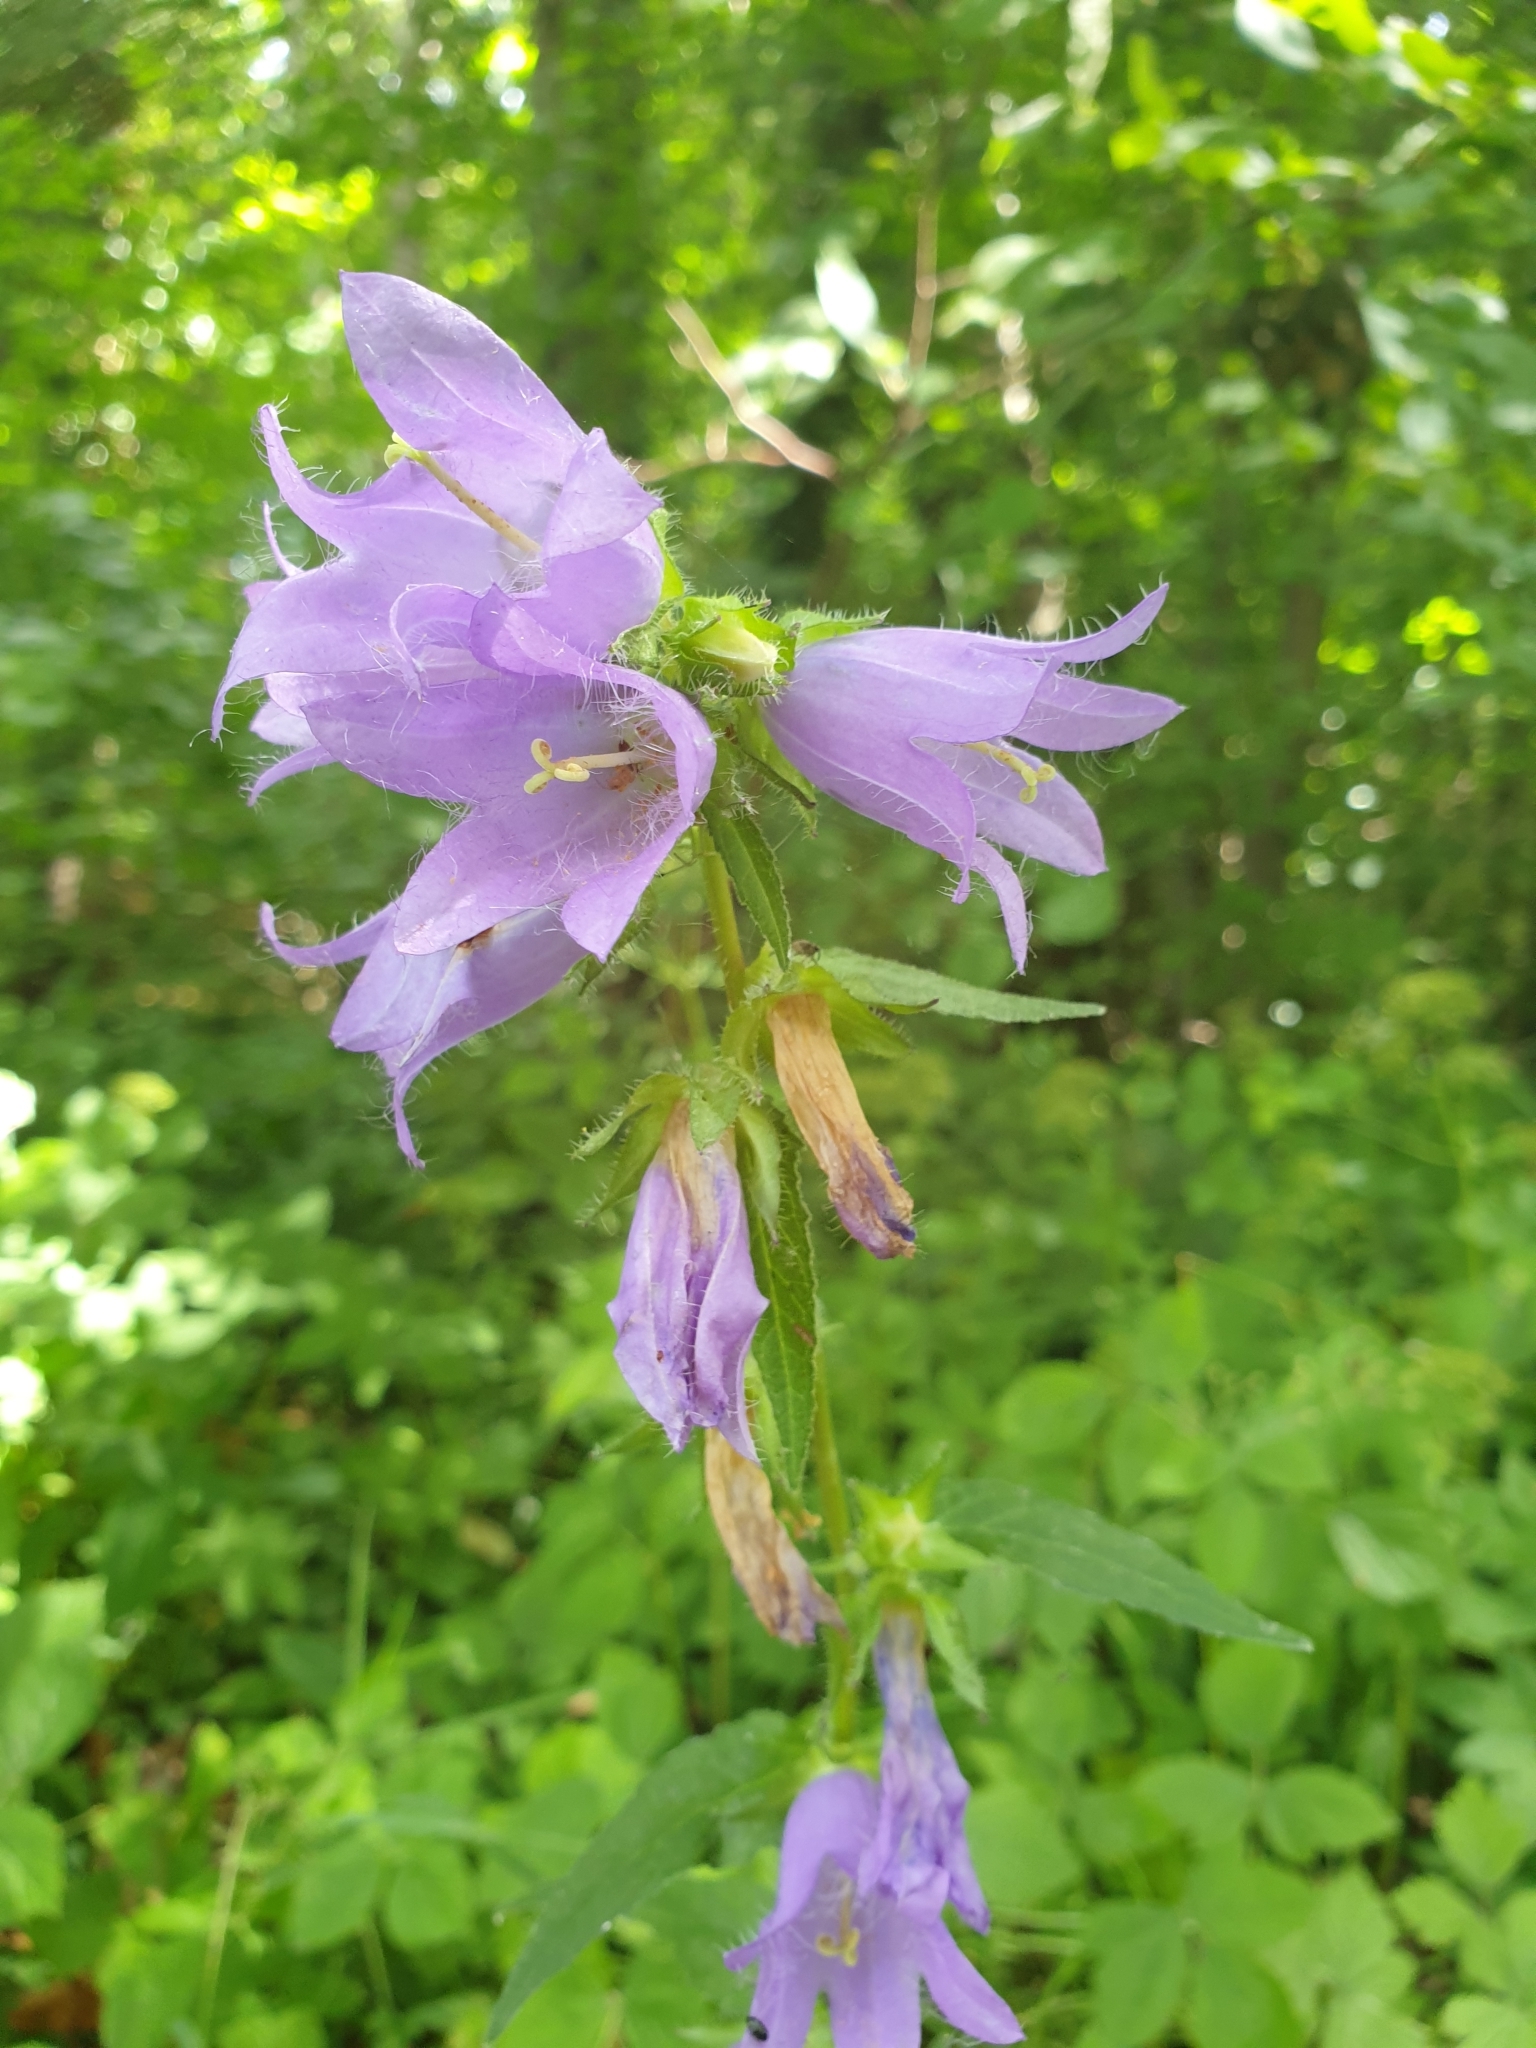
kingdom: Plantae
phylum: Tracheophyta
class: Magnoliopsida
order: Asterales
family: Campanulaceae
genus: Campanula
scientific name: Campanula trachelium
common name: Nettle-leaved bellflower
